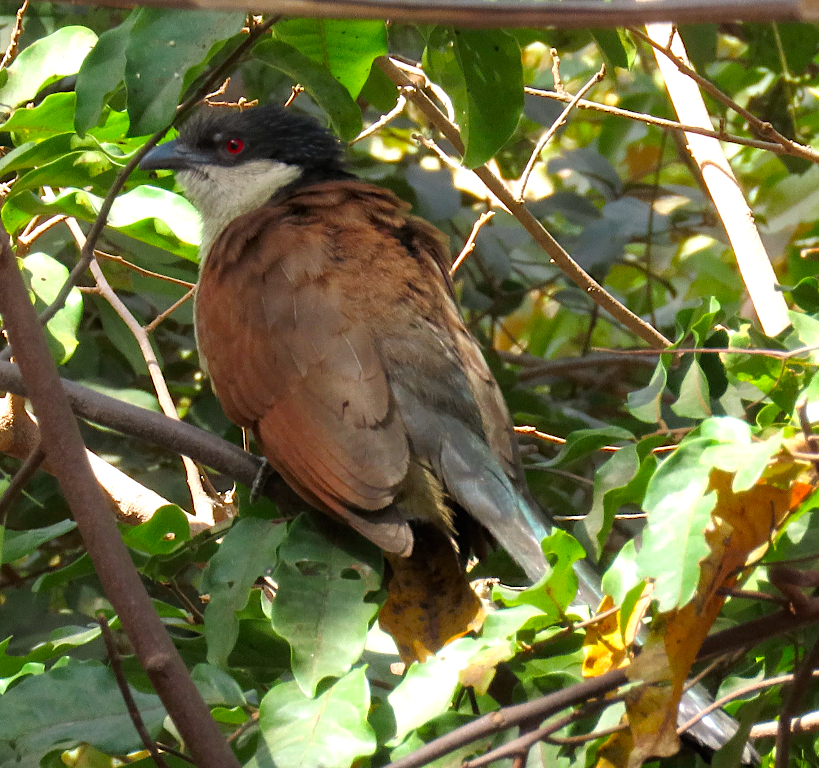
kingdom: Animalia
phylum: Chordata
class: Aves
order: Cuculiformes
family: Cuculidae
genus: Centropus
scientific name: Centropus senegalensis
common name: Senegal coucal
